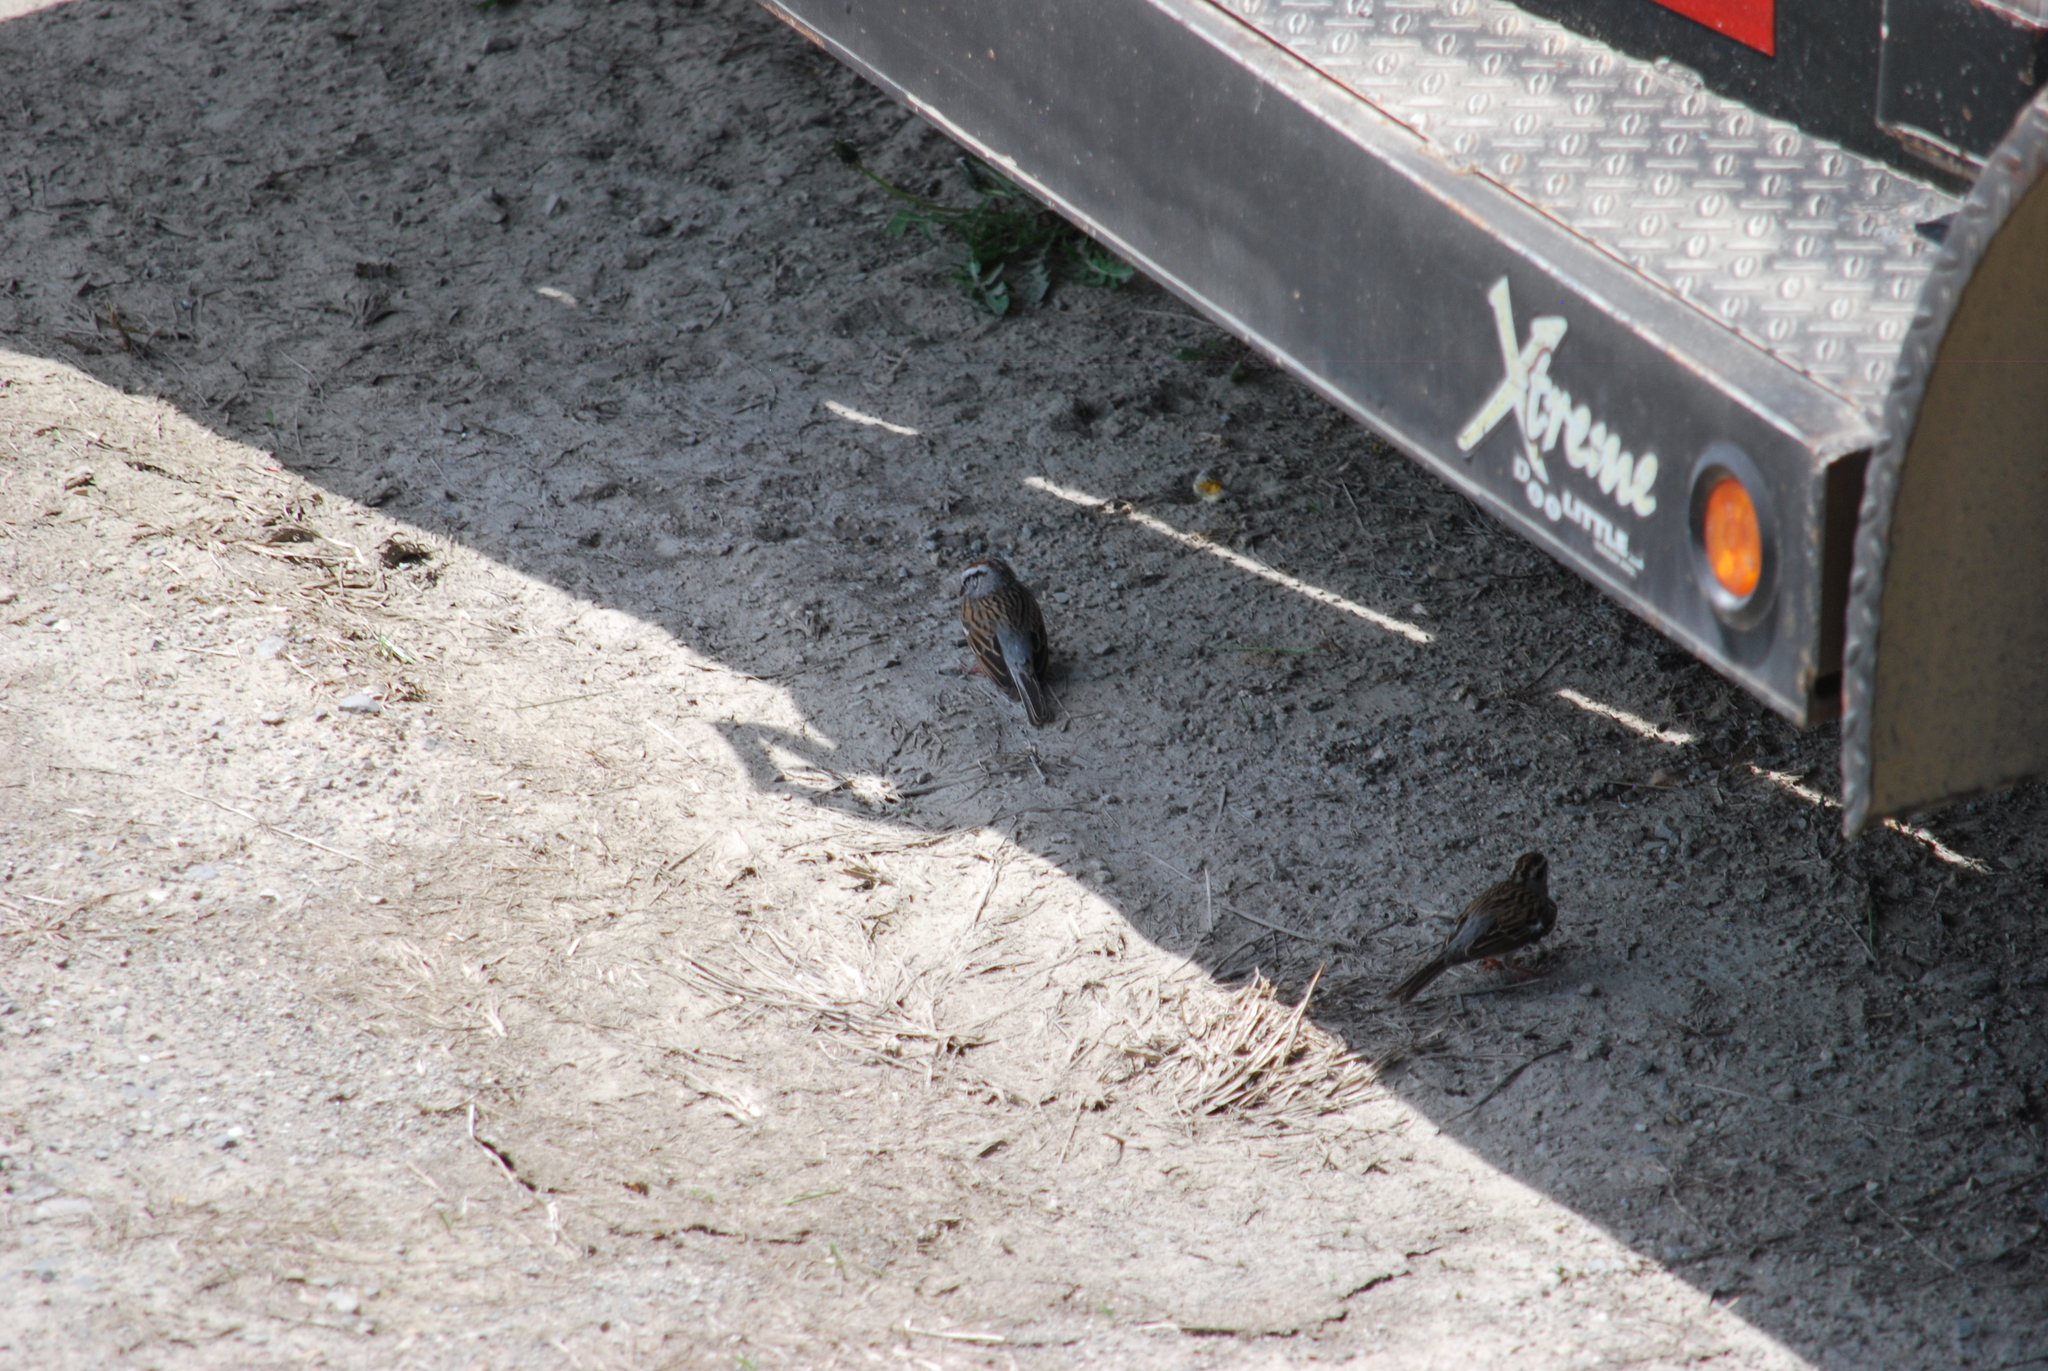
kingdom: Animalia
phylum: Chordata
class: Aves
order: Passeriformes
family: Passerellidae
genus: Spizella
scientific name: Spizella passerina
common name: Chipping sparrow
